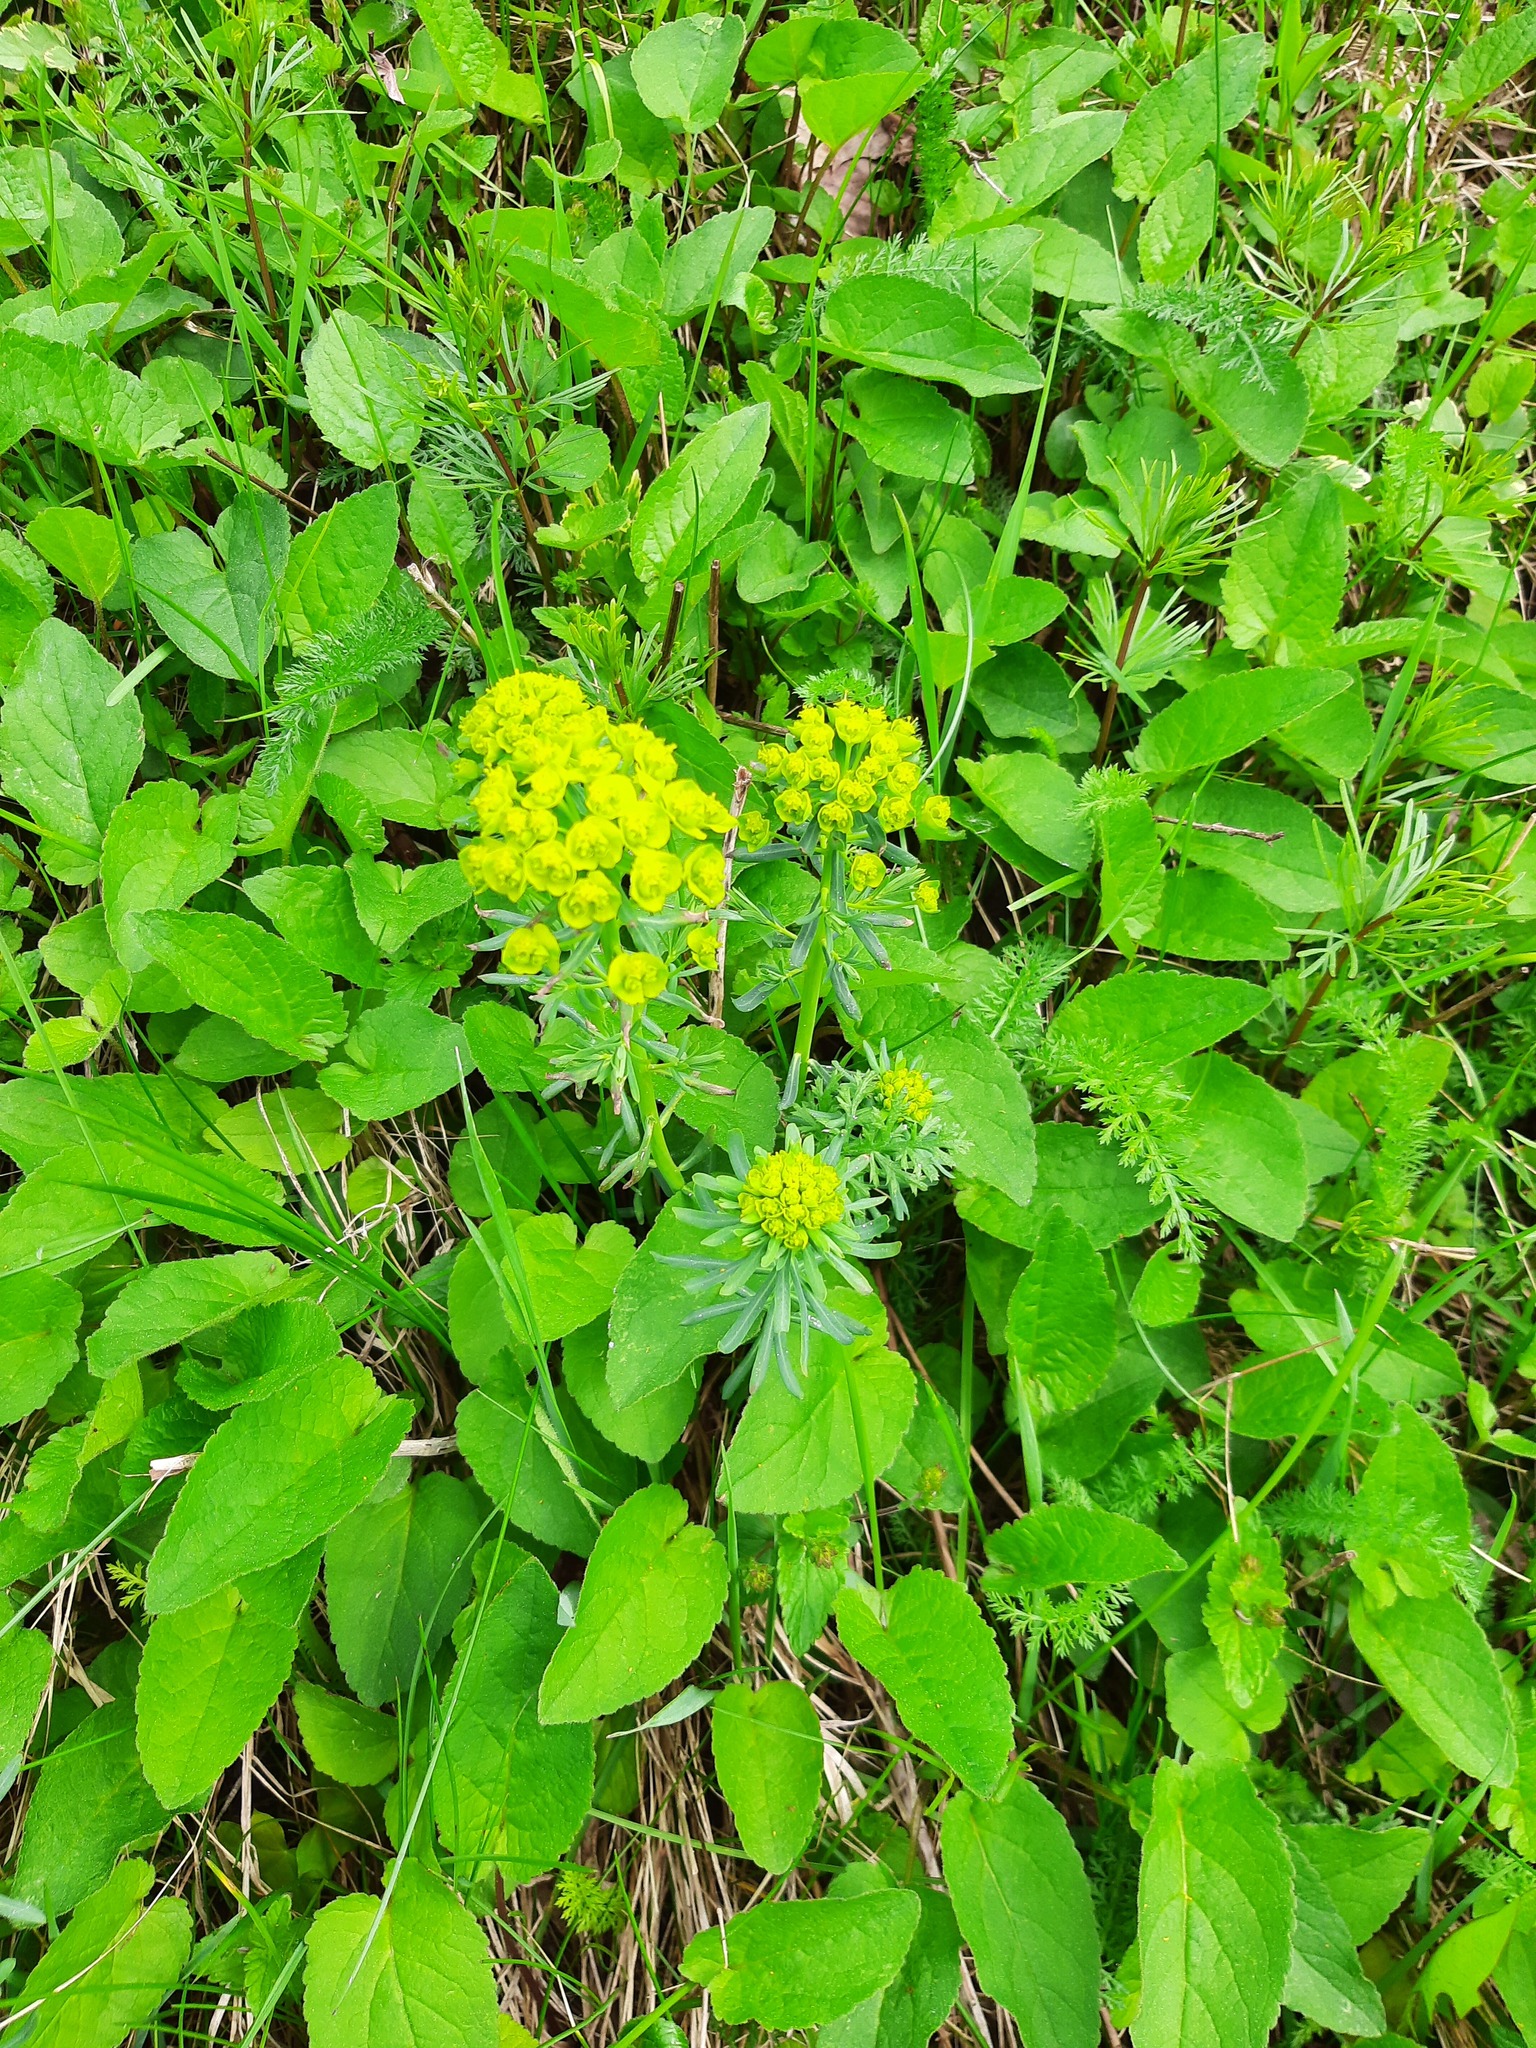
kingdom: Plantae
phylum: Tracheophyta
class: Magnoliopsida
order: Malpighiales
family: Euphorbiaceae
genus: Euphorbia
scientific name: Euphorbia cyparissias
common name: Cypress spurge
